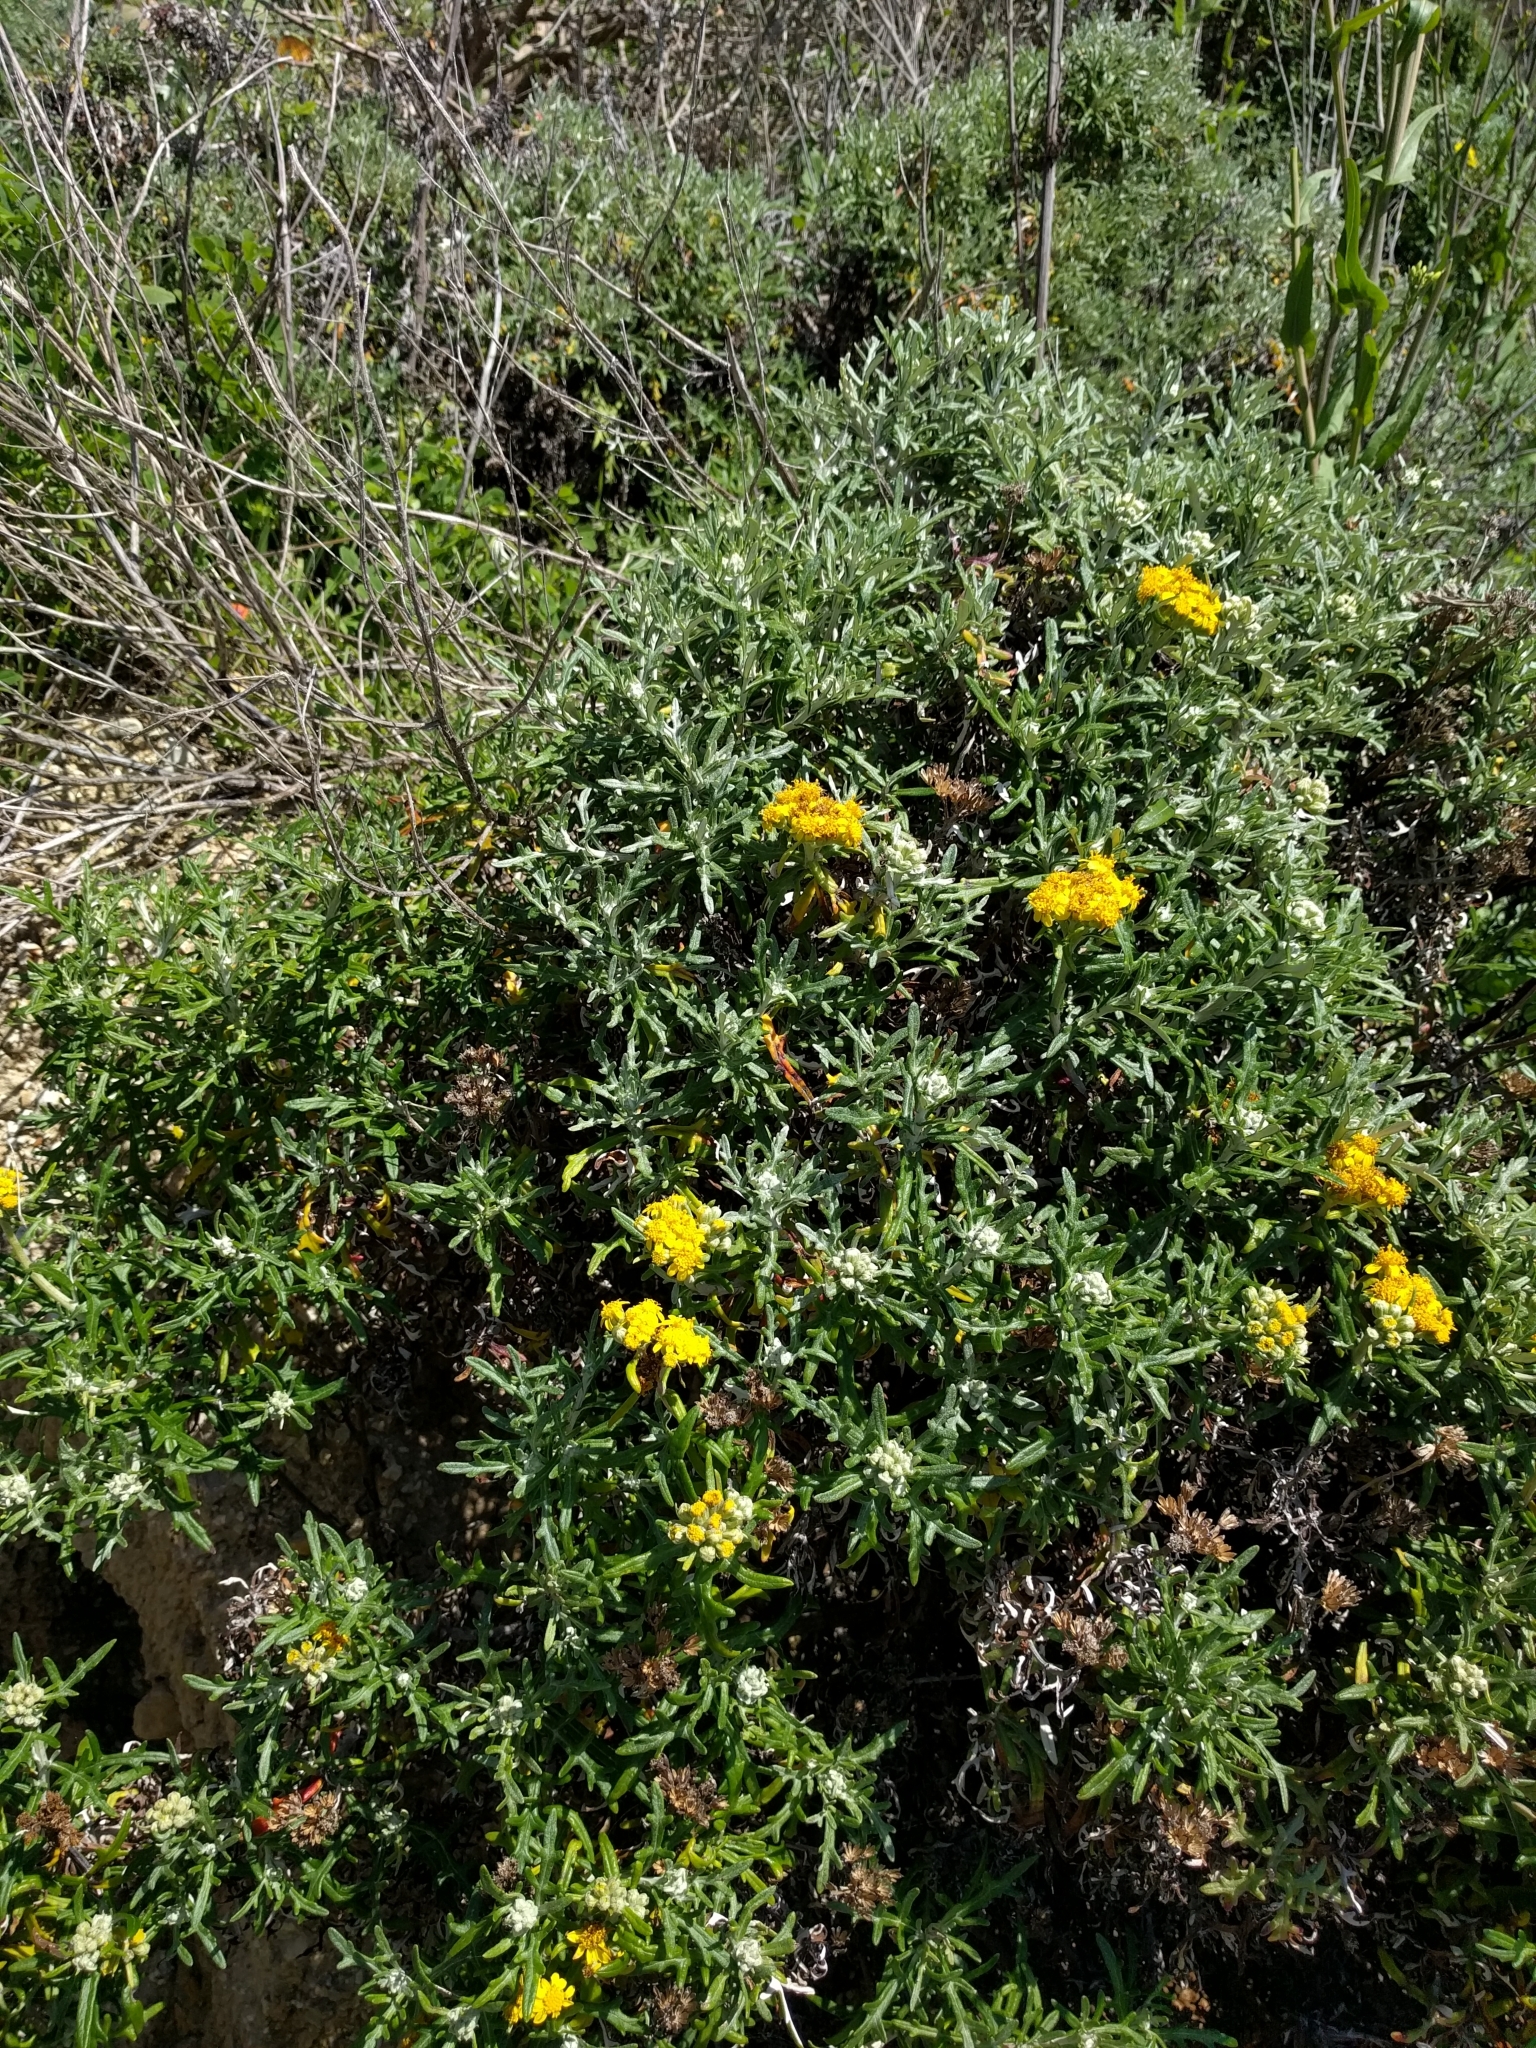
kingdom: Plantae
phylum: Tracheophyta
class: Magnoliopsida
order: Asterales
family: Asteraceae
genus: Eriophyllum
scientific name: Eriophyllum staechadifolium
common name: Lizardtail
